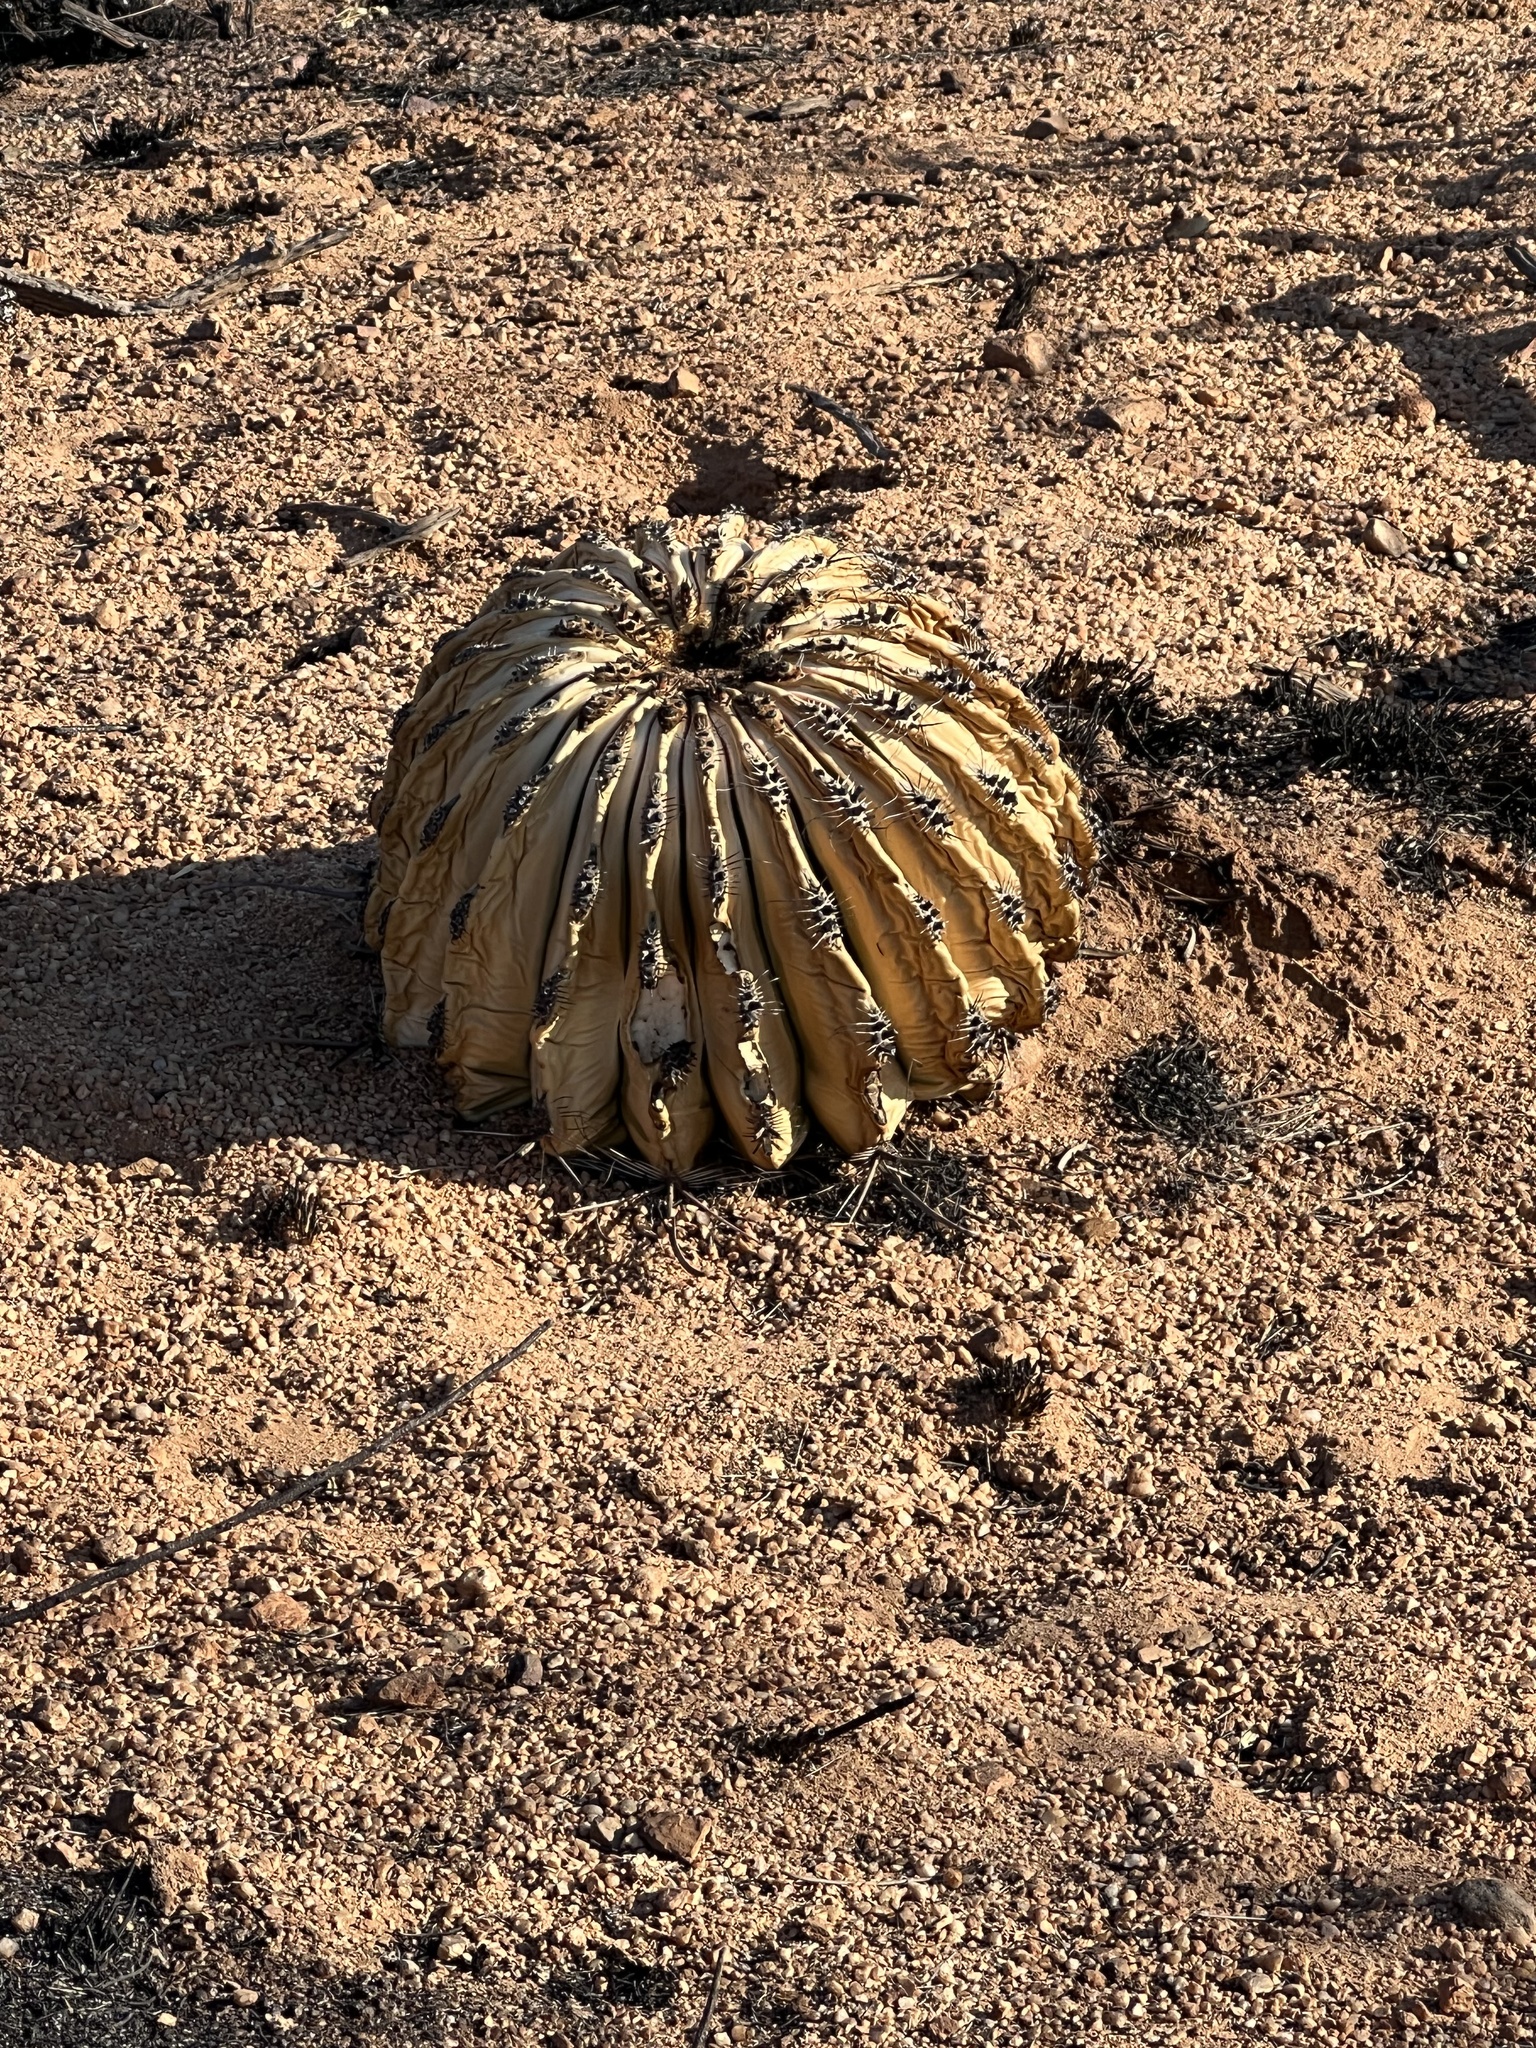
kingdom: Plantae
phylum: Tracheophyta
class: Magnoliopsida
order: Caryophyllales
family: Cactaceae
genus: Ferocactus
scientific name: Ferocactus wislizeni
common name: Candy barrel cactus
